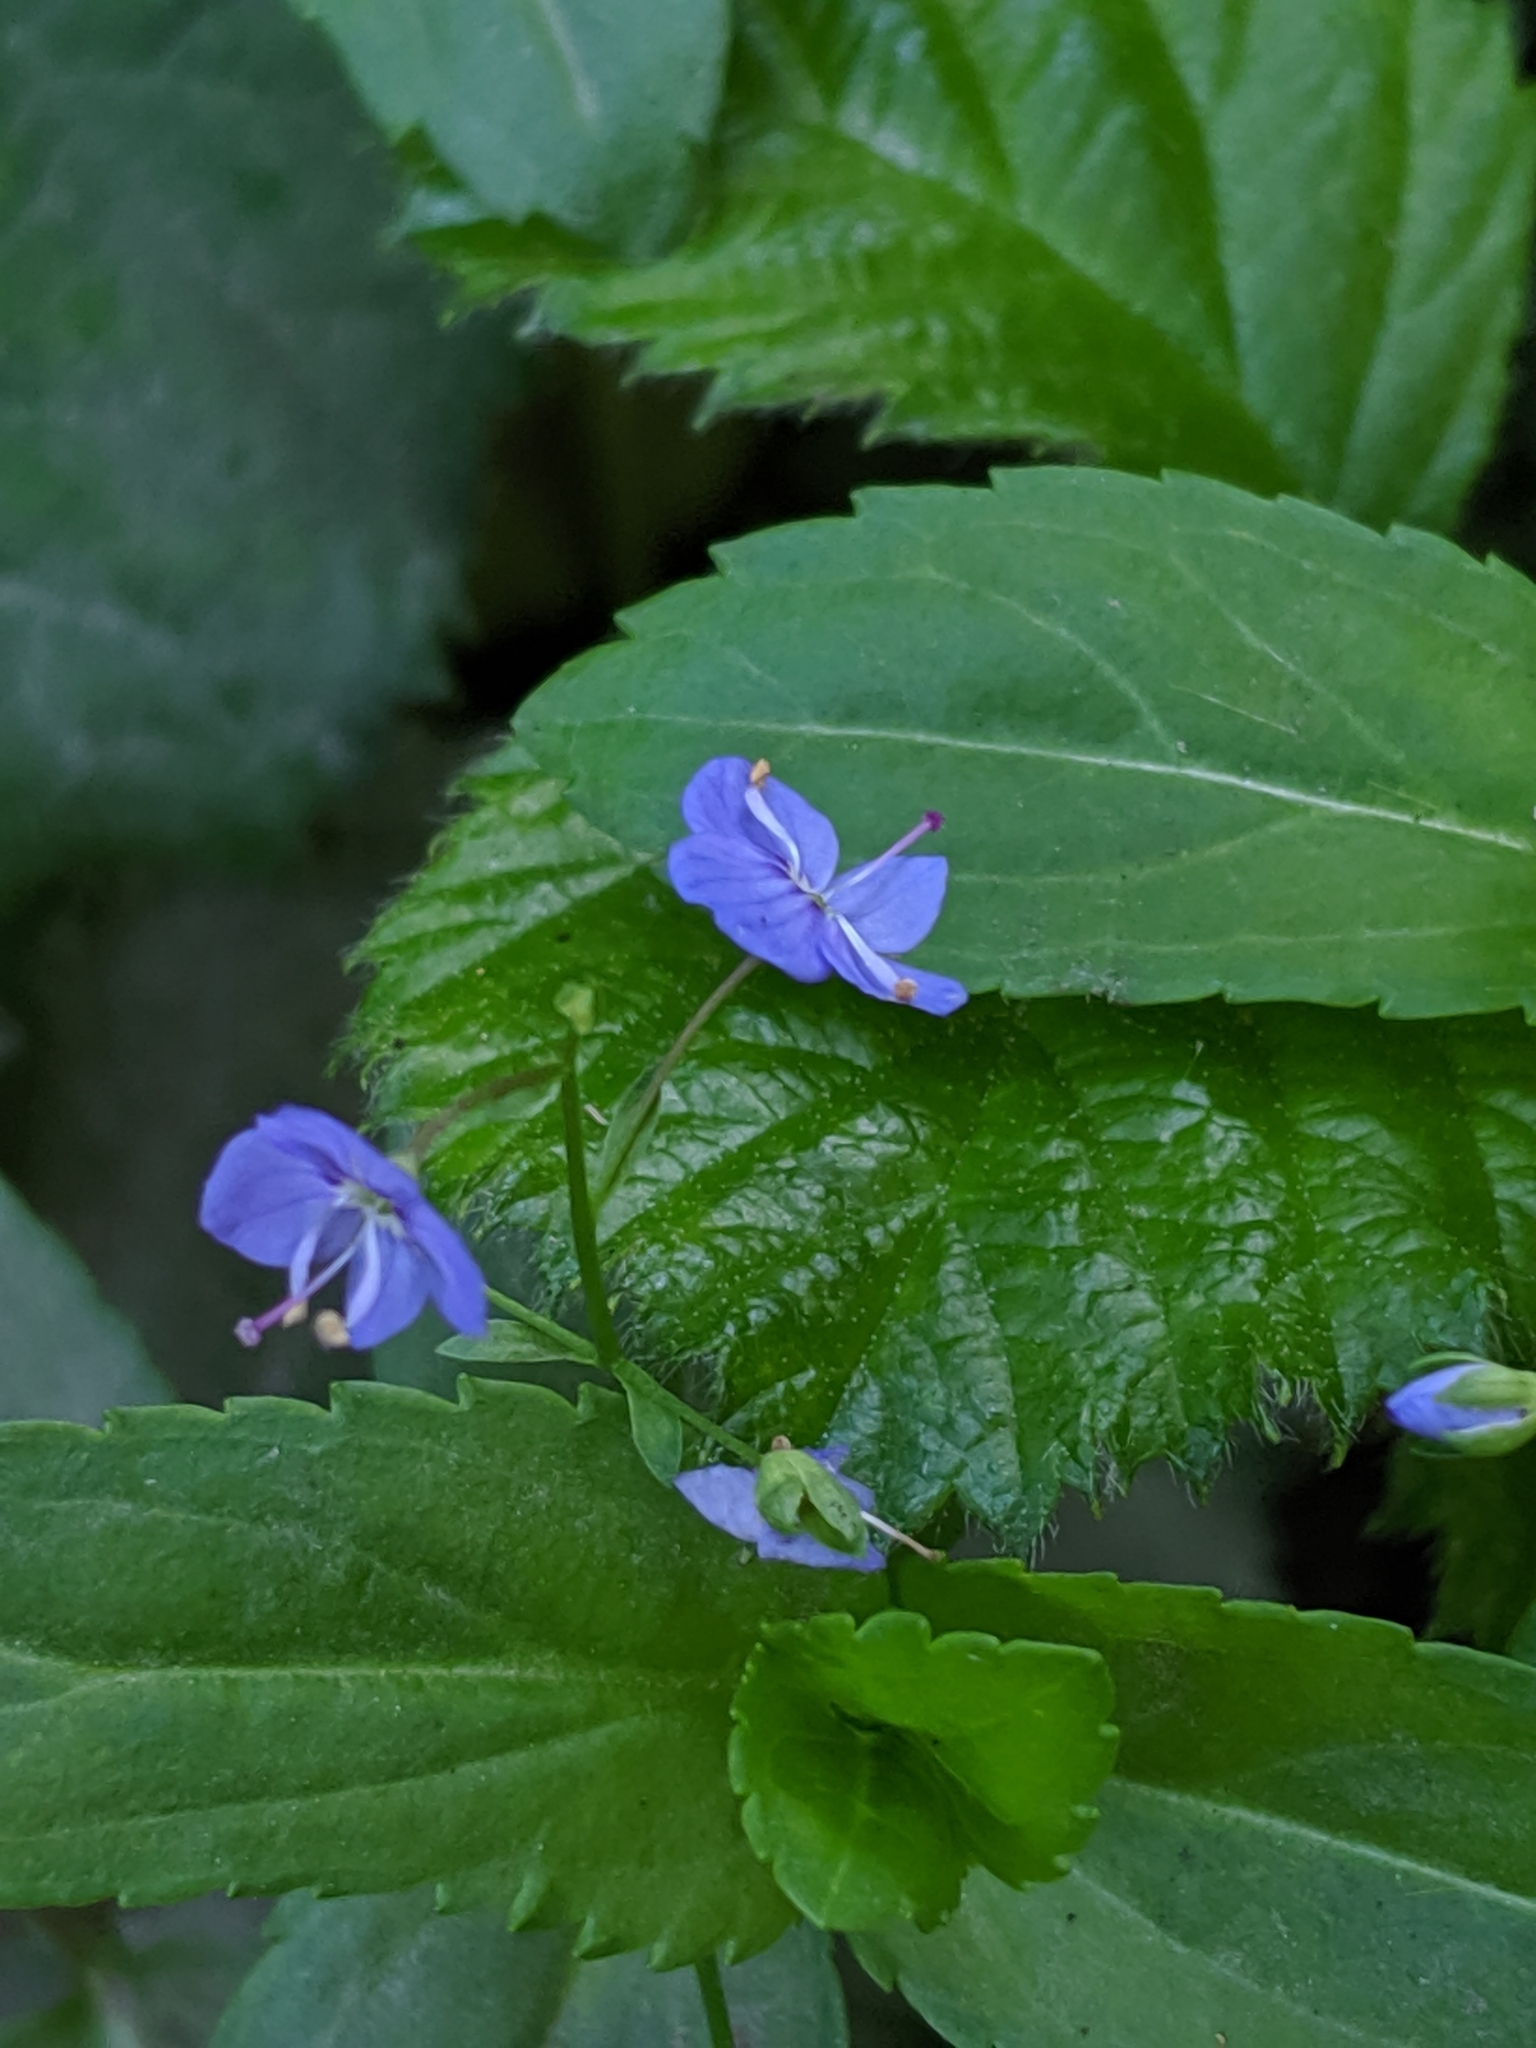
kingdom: Plantae
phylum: Tracheophyta
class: Magnoliopsida
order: Lamiales
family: Plantaginaceae
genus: Veronica
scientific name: Veronica americana
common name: American brooklime
